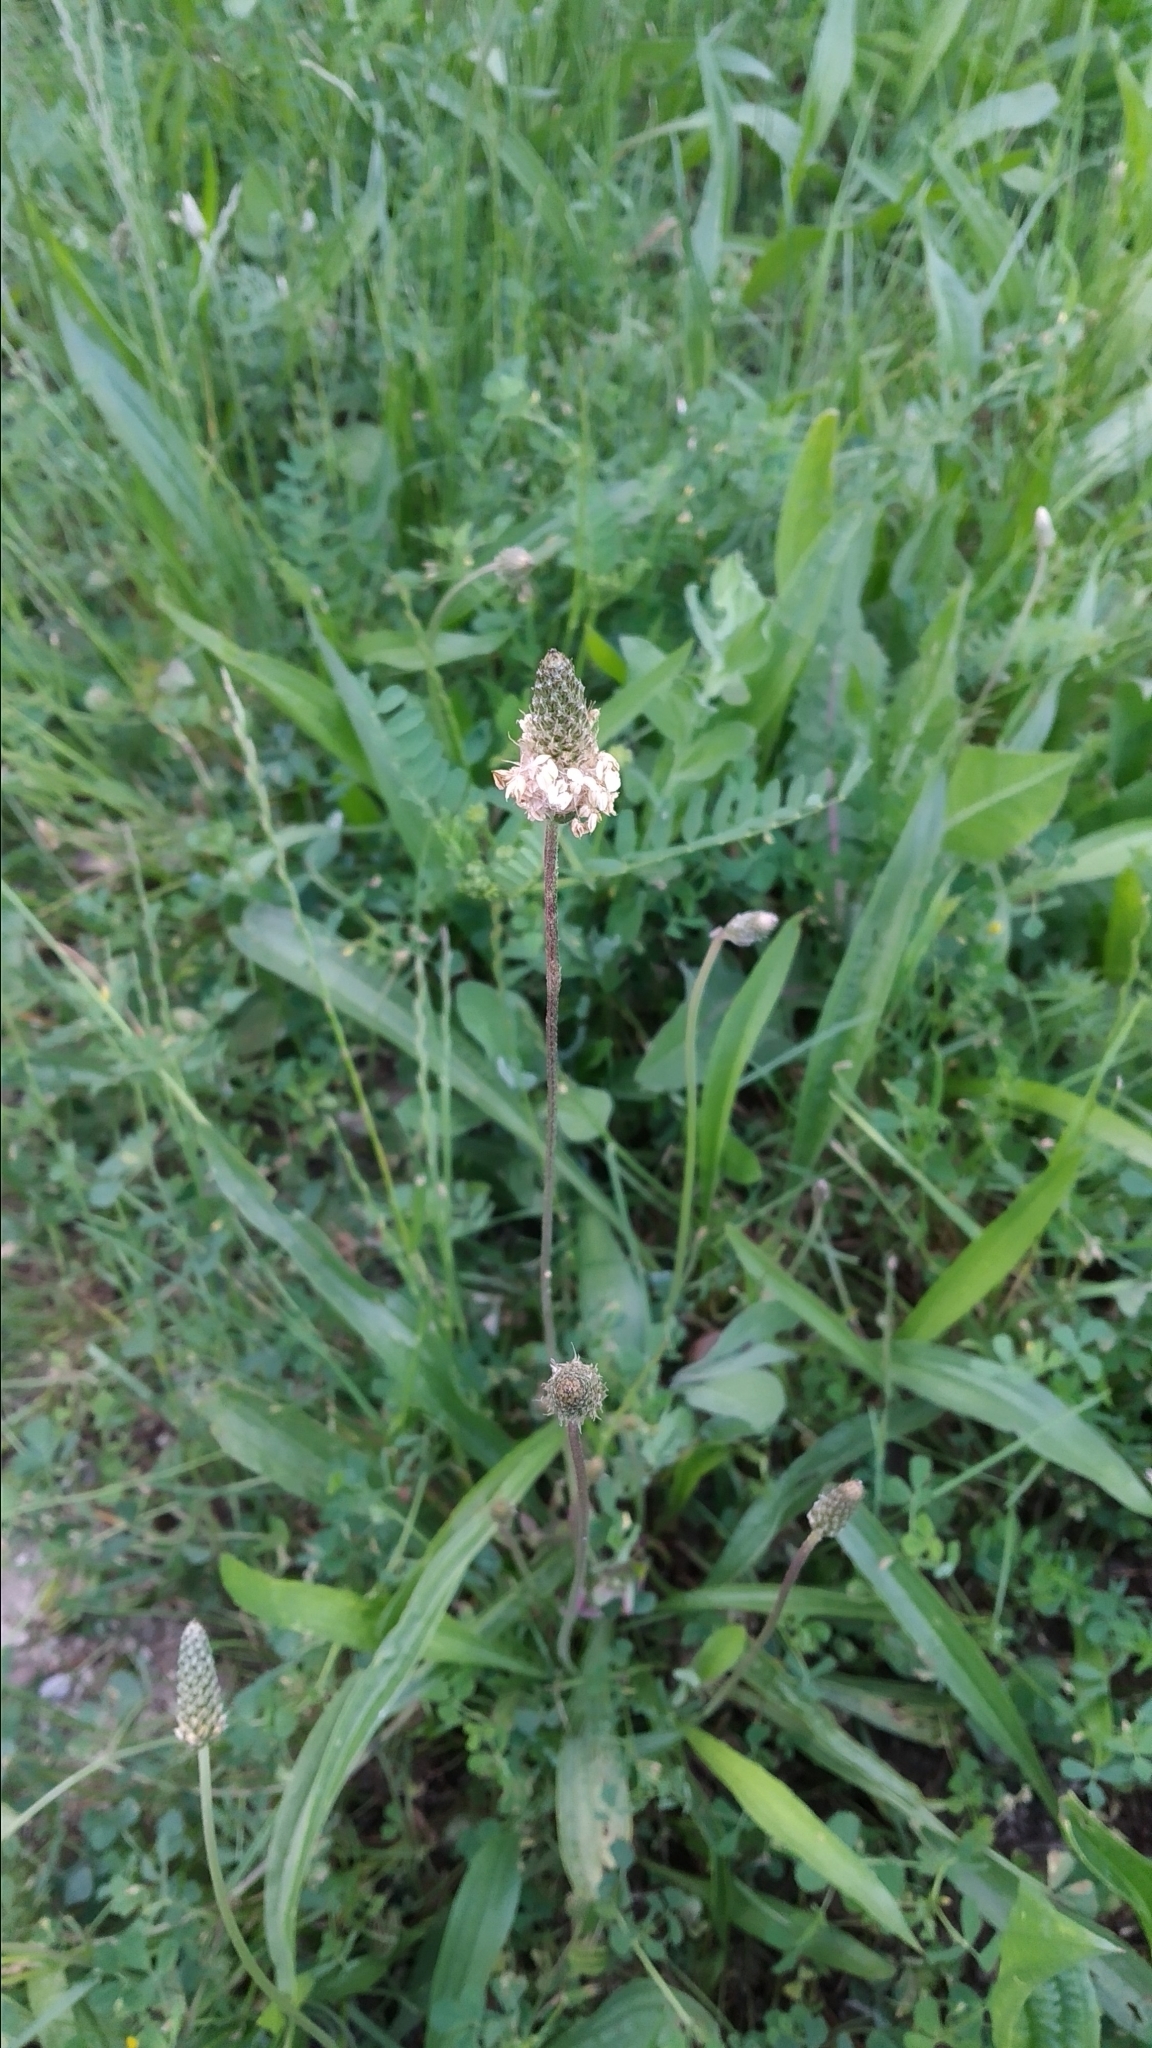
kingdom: Plantae
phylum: Tracheophyta
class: Magnoliopsida
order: Lamiales
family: Plantaginaceae
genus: Plantago
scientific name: Plantago lanceolata
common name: Ribwort plantain
